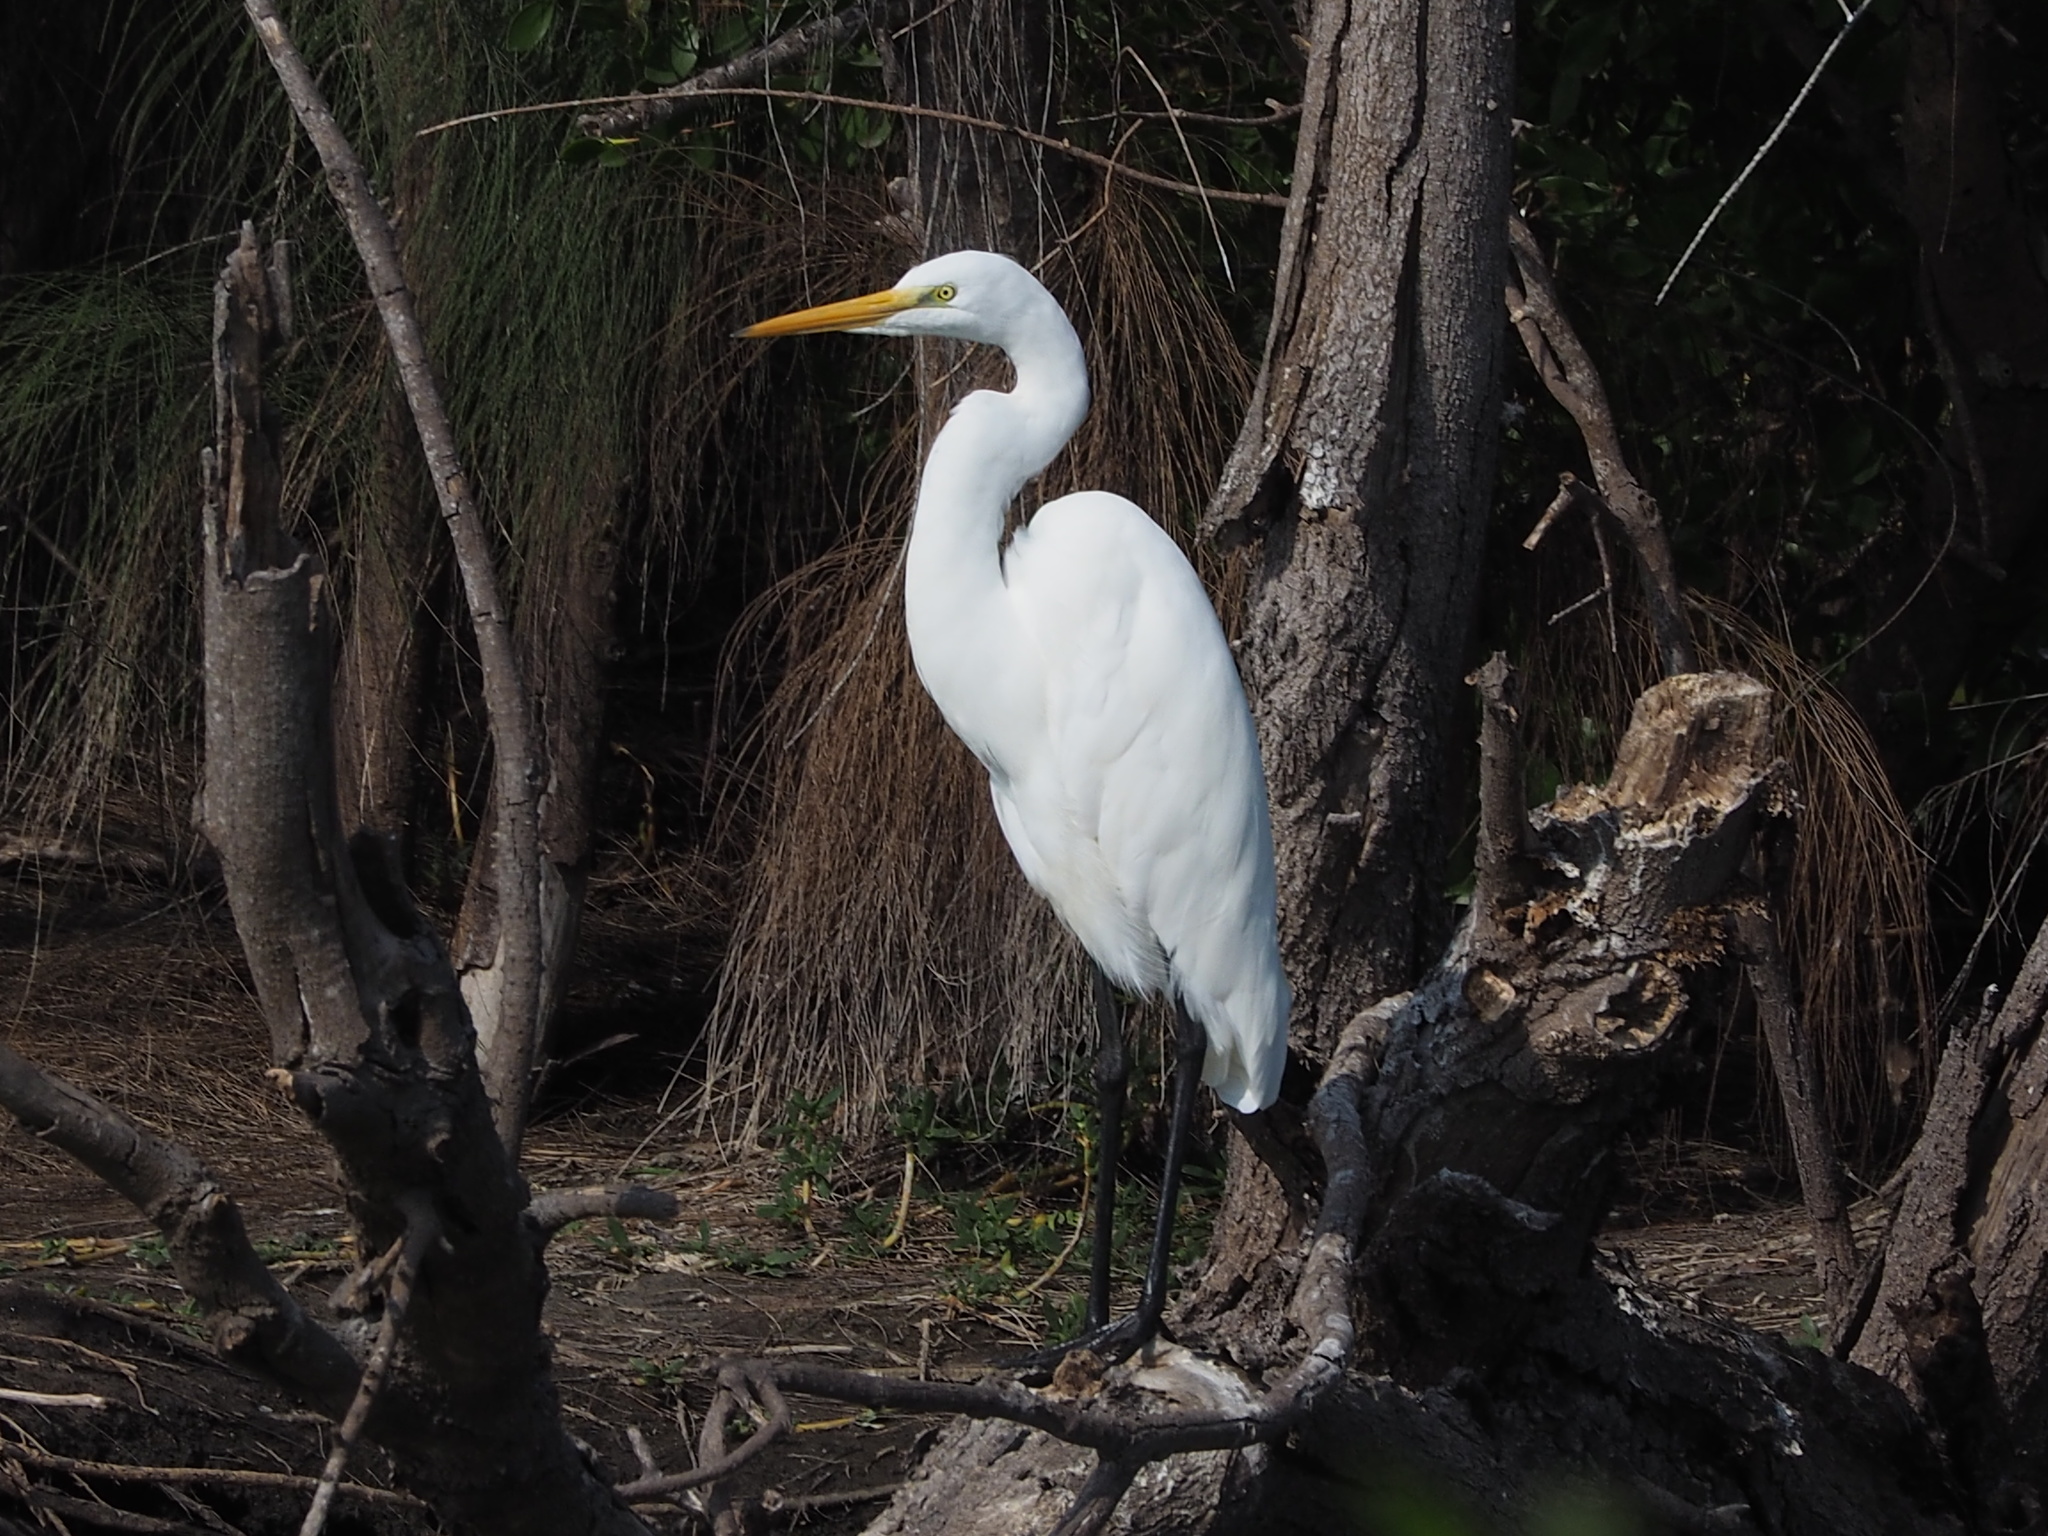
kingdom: Animalia
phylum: Chordata
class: Aves
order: Pelecaniformes
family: Ardeidae
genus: Ardea
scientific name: Ardea alba
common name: Great egret
